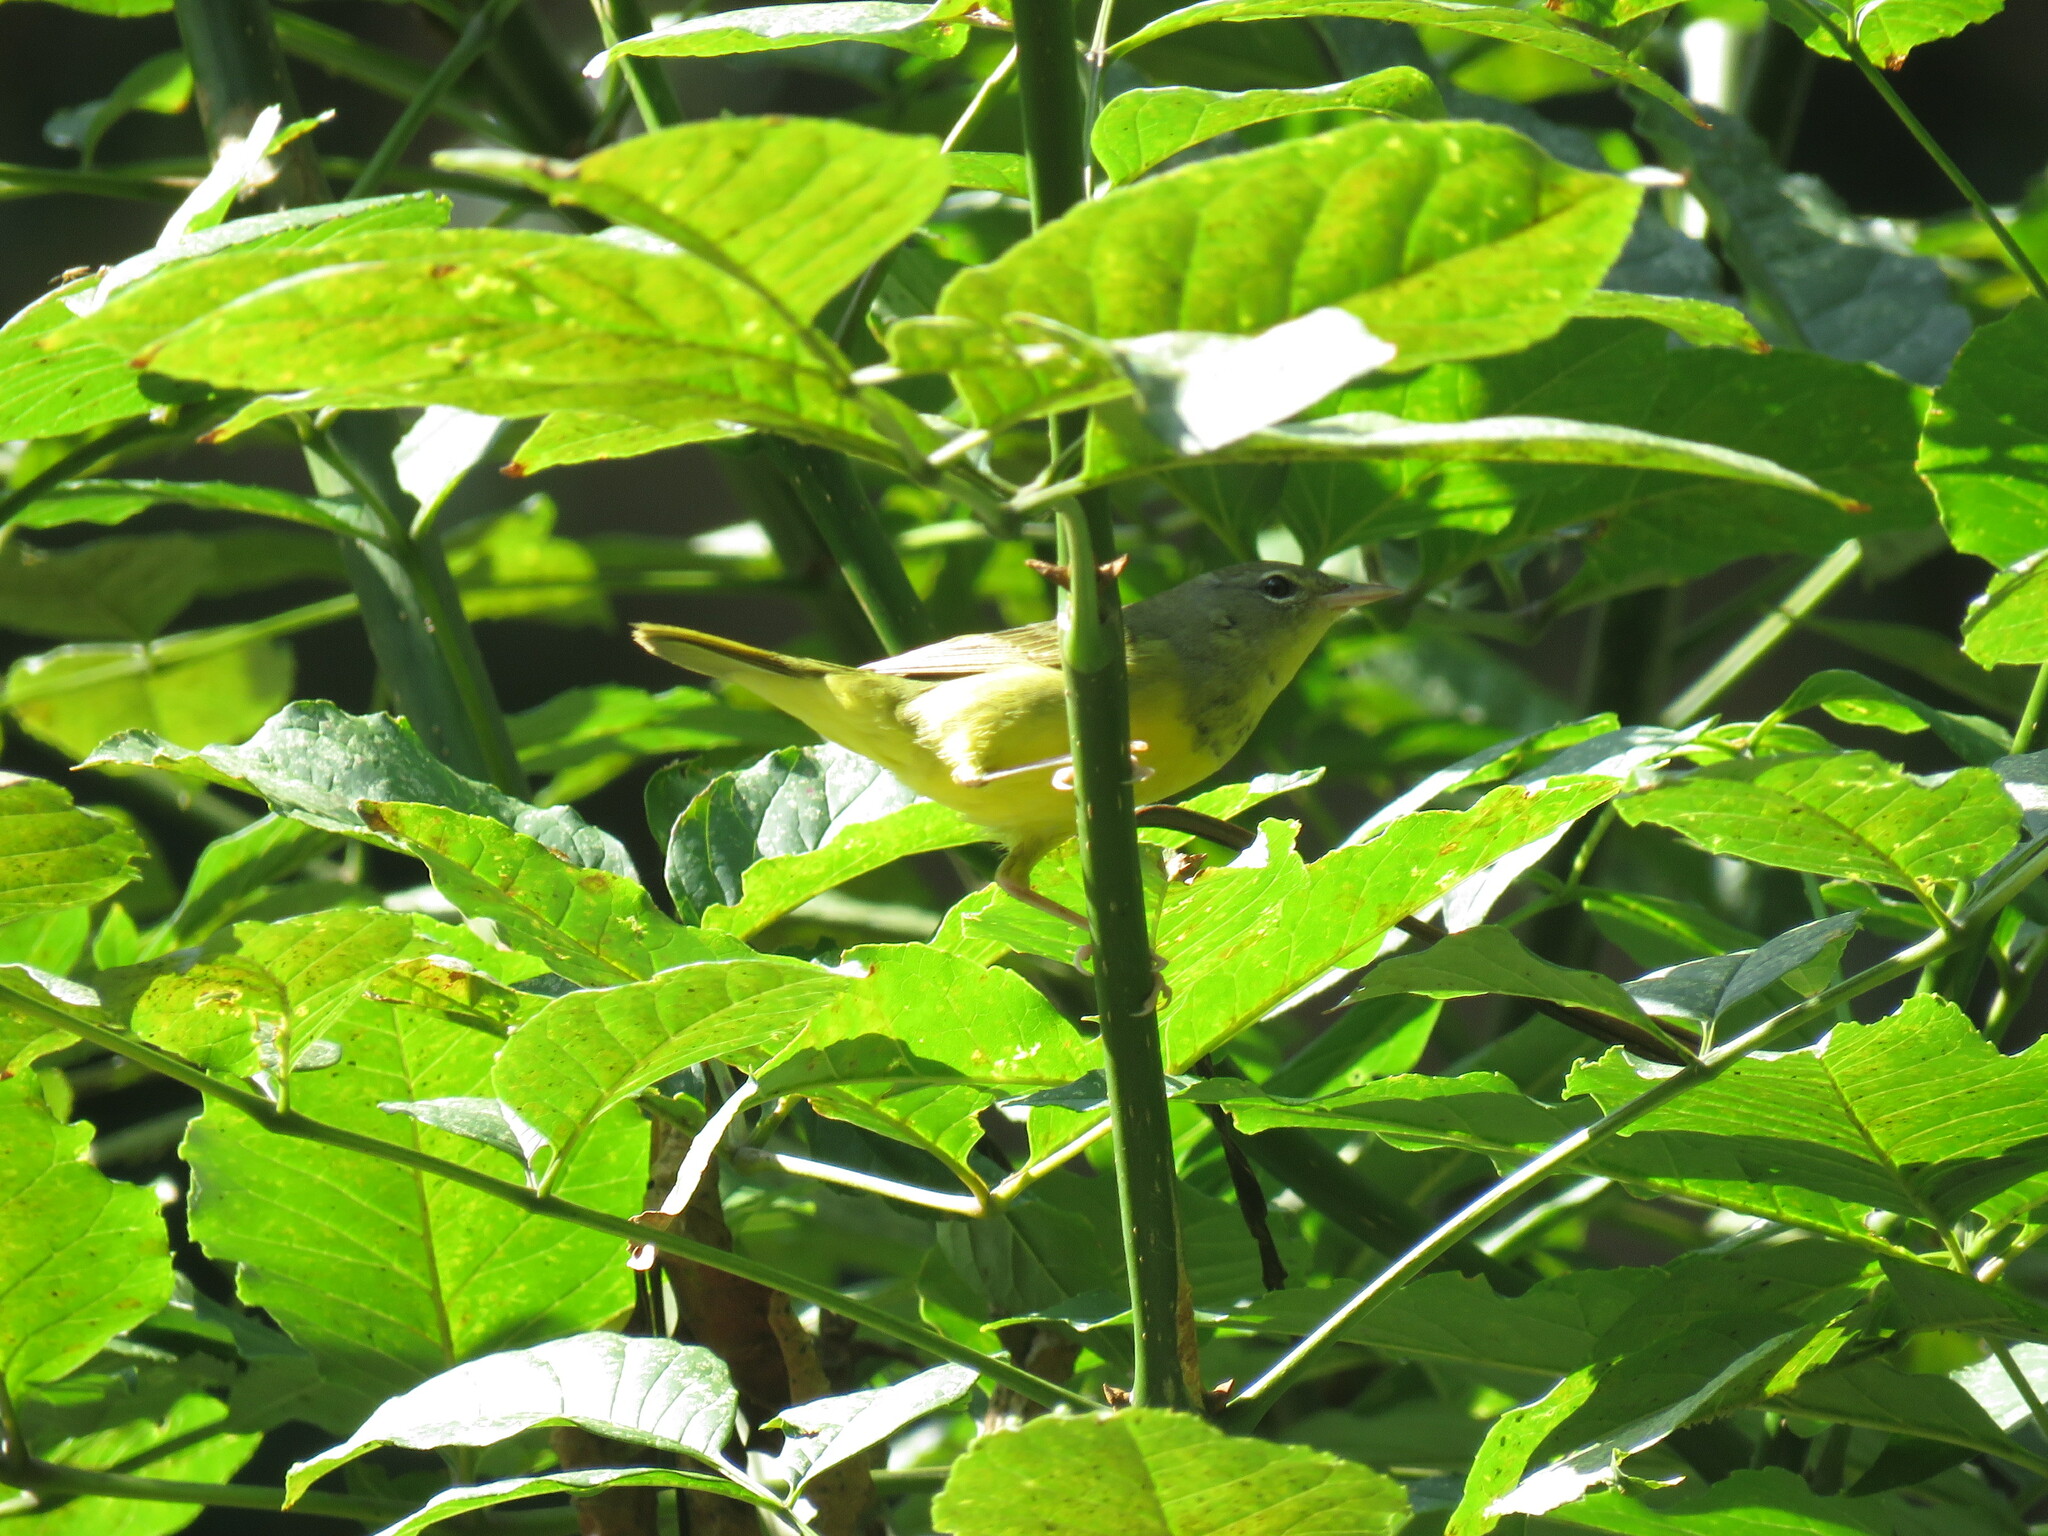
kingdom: Animalia
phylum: Chordata
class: Aves
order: Passeriformes
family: Parulidae
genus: Geothlypis
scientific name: Geothlypis philadelphia
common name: Mourning warbler
